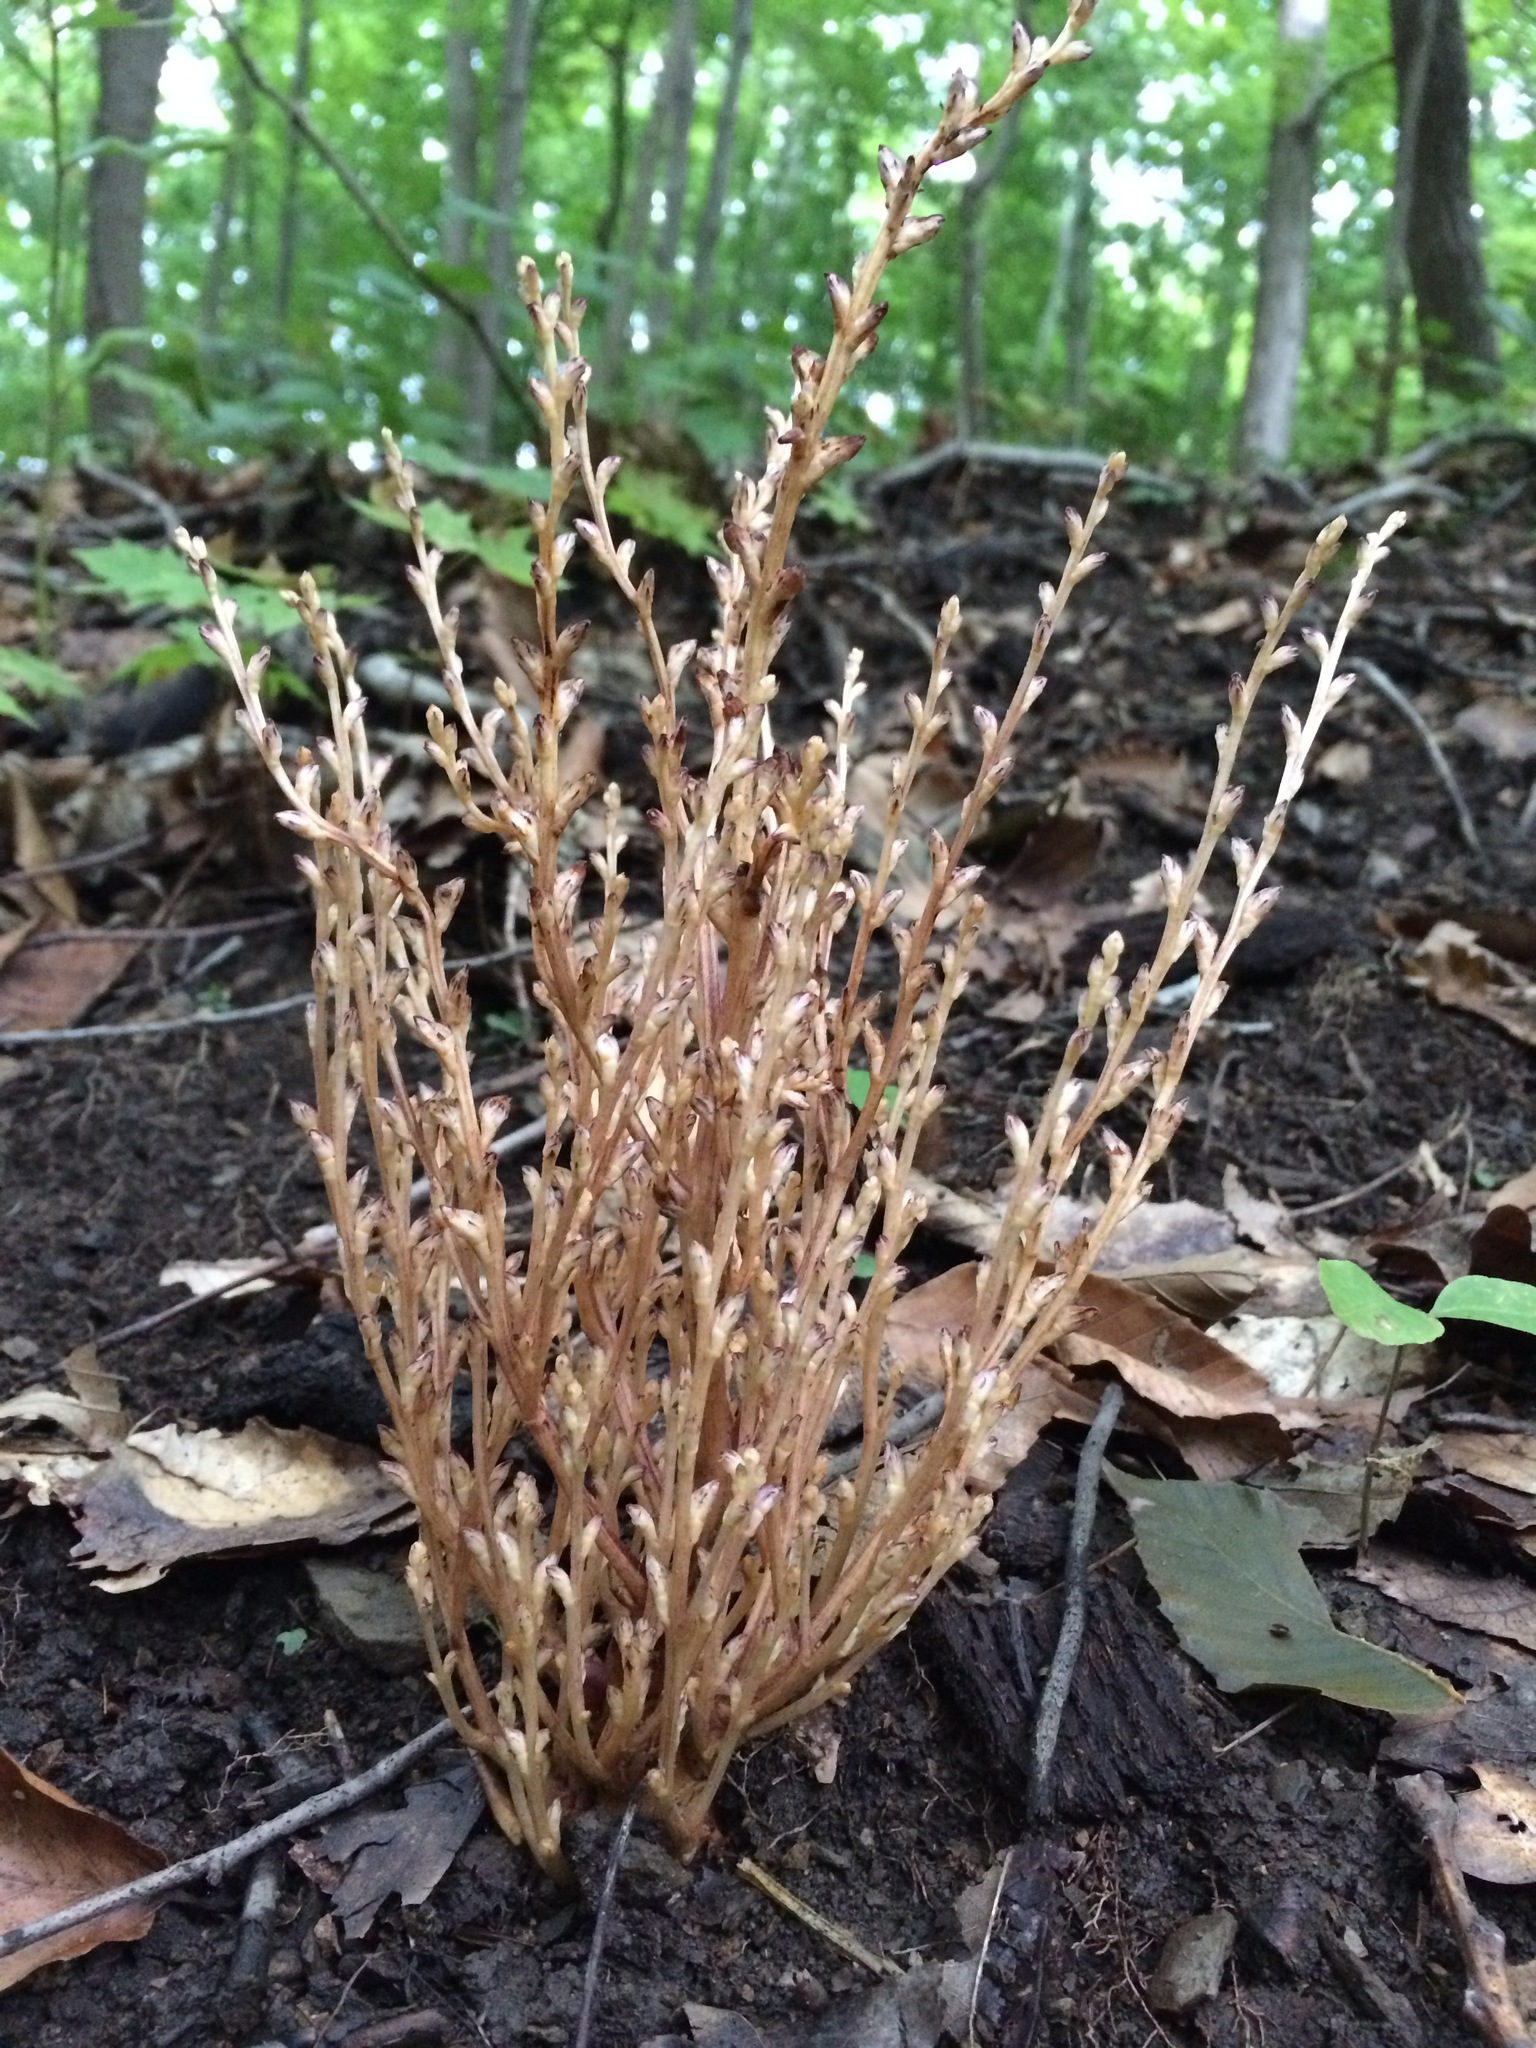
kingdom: Plantae
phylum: Tracheophyta
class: Magnoliopsida
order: Lamiales
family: Orobanchaceae
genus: Epifagus
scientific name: Epifagus virginiana
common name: Beechdrops
